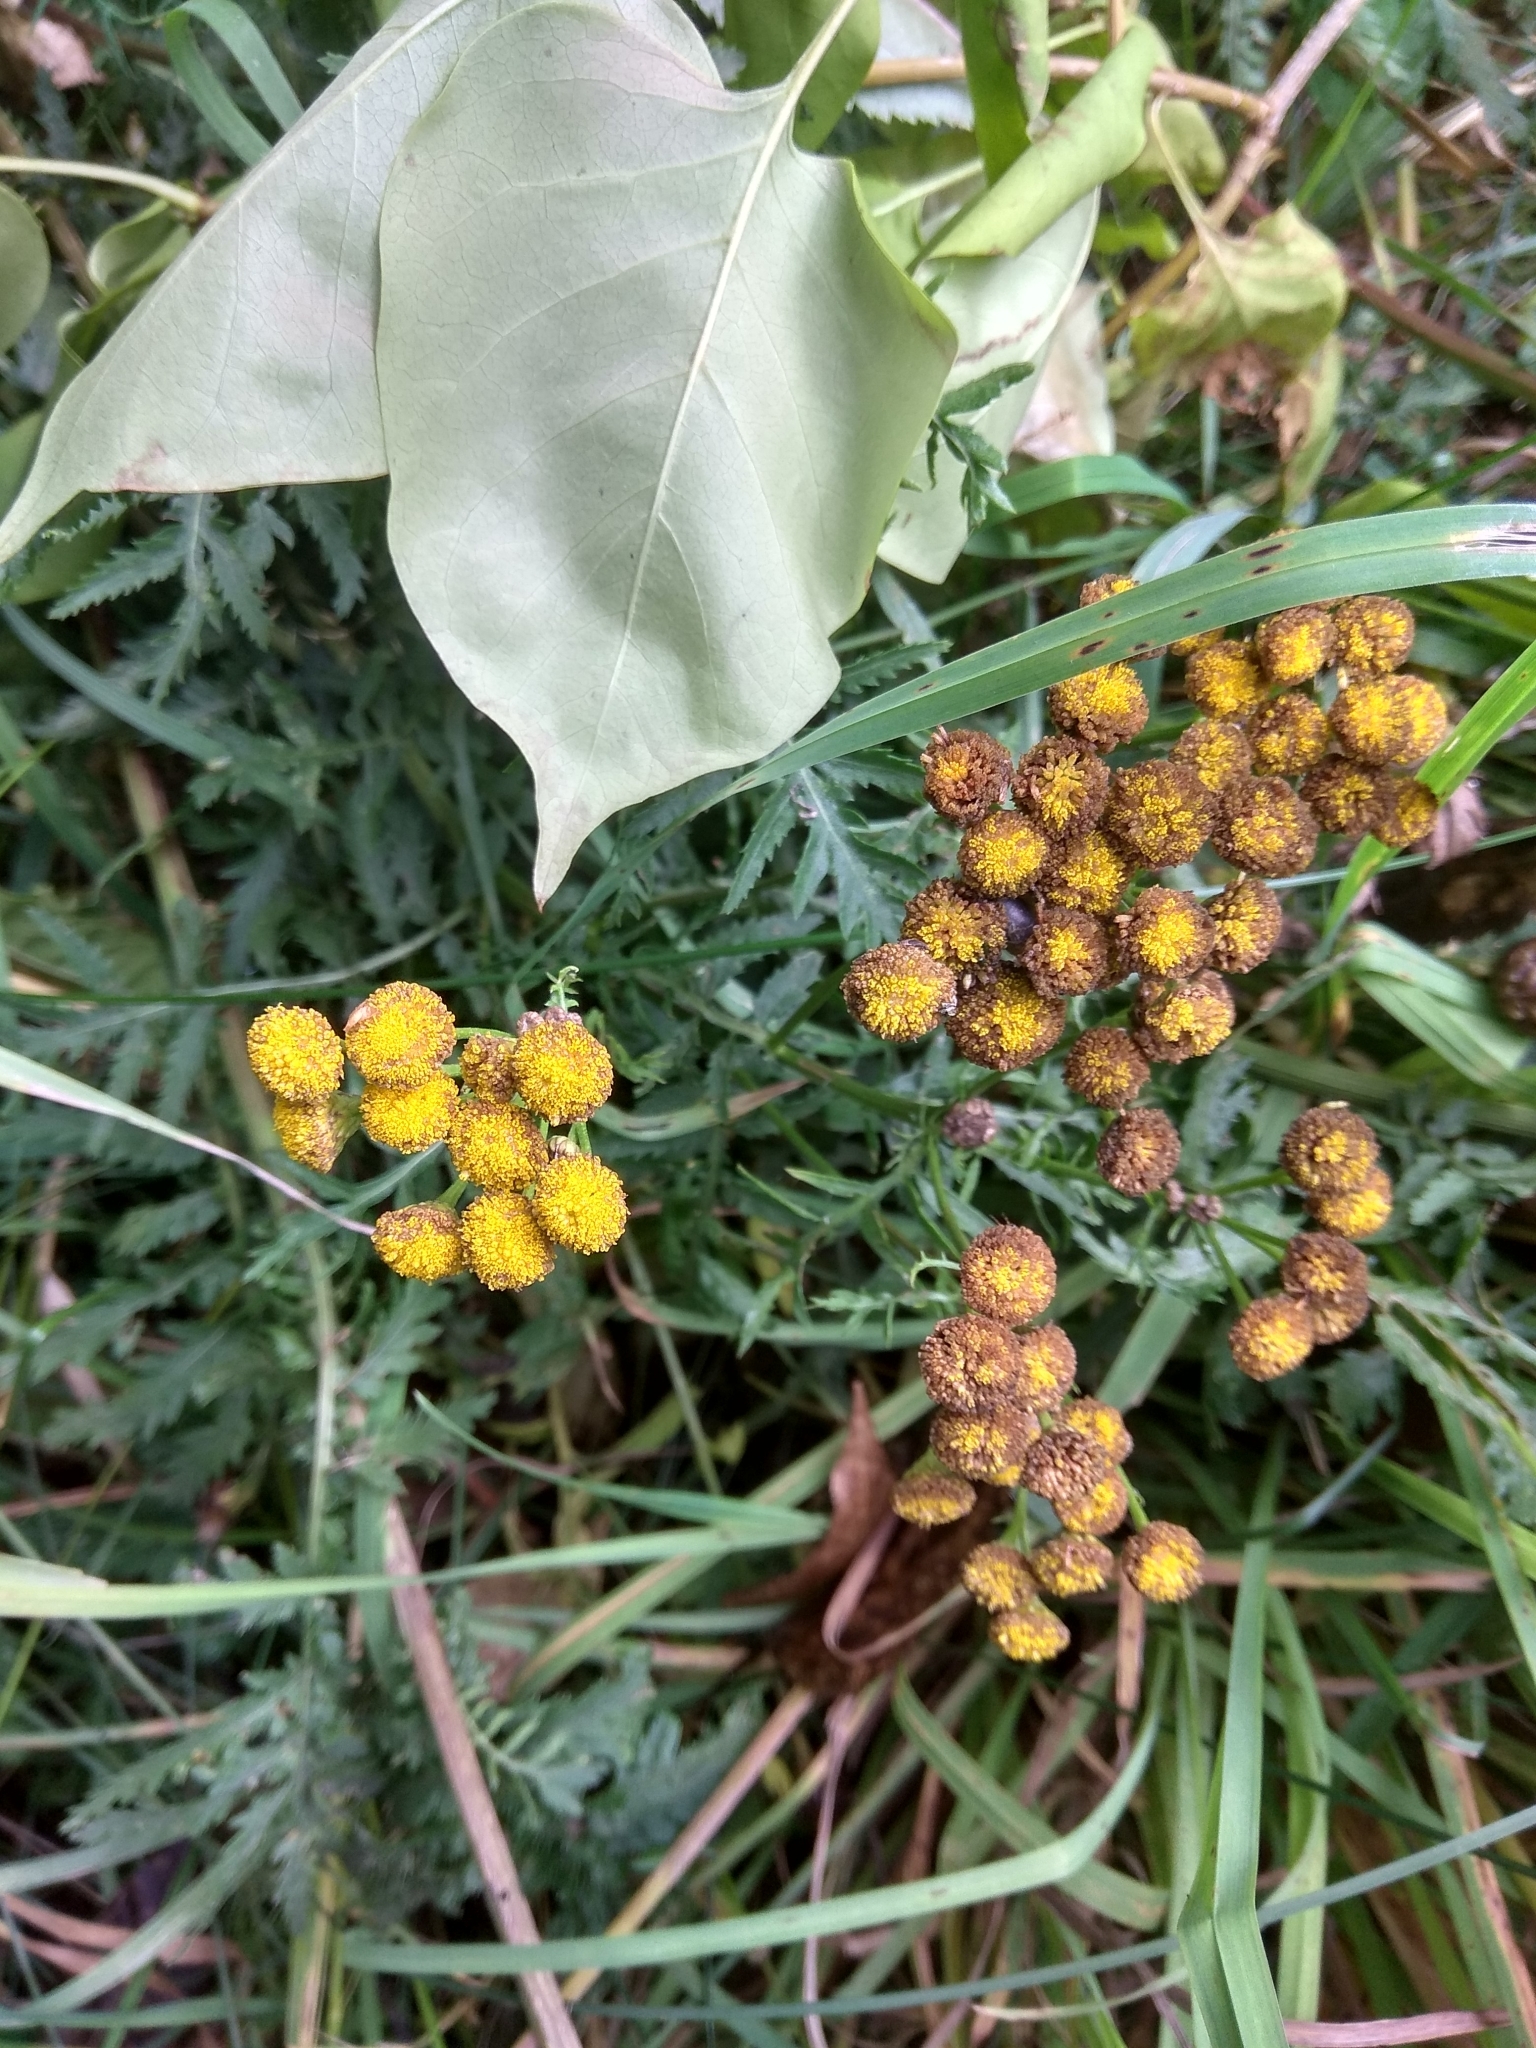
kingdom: Plantae
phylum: Tracheophyta
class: Magnoliopsida
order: Asterales
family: Asteraceae
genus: Tanacetum
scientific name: Tanacetum vulgare
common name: Common tansy
